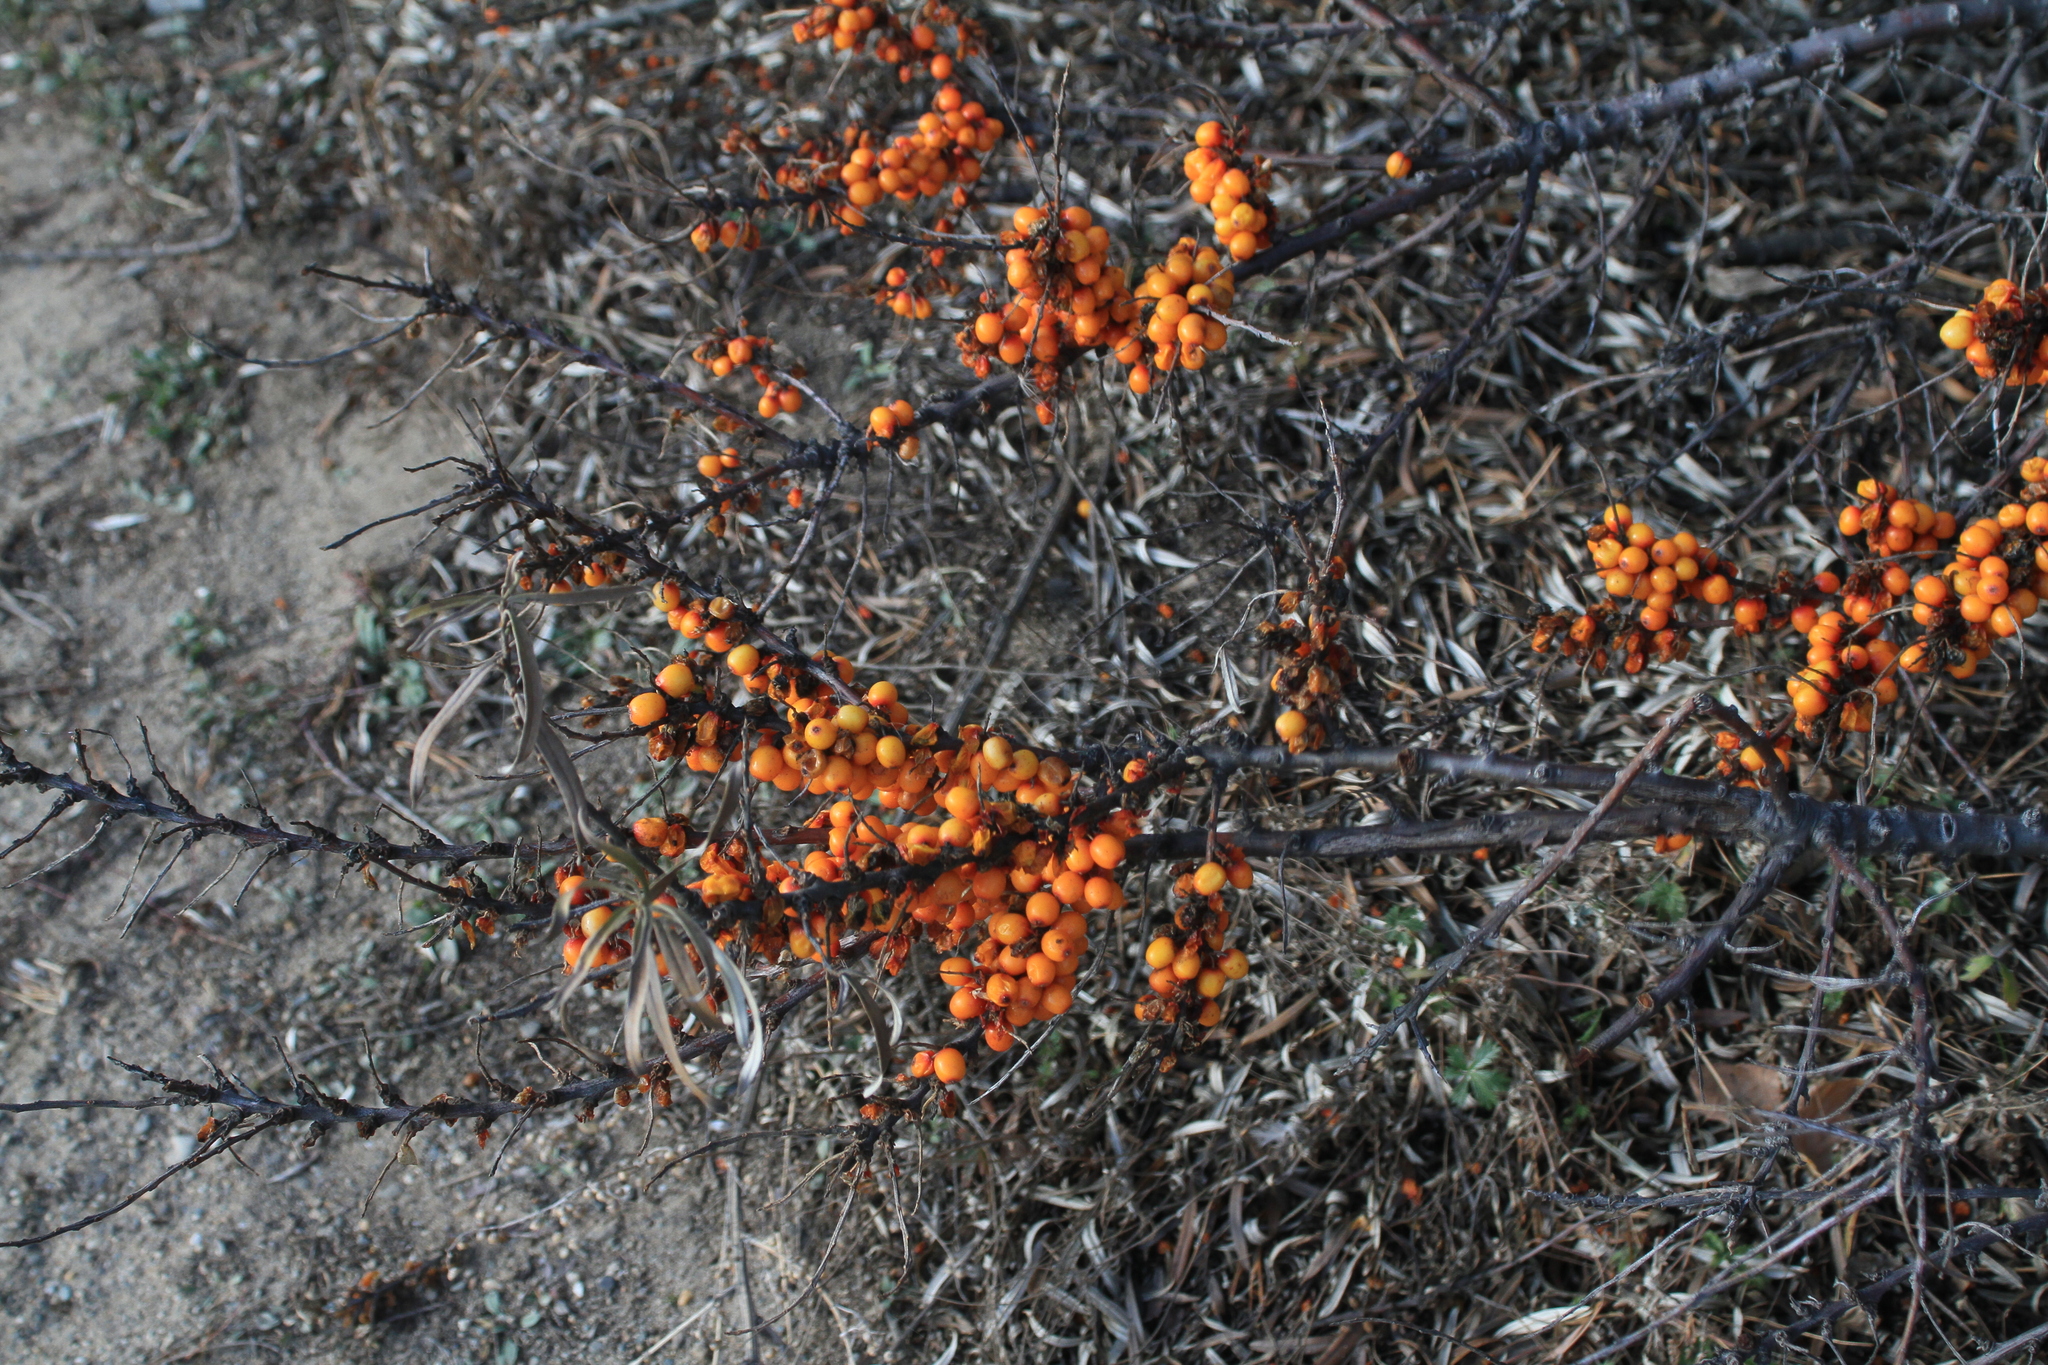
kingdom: Plantae
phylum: Tracheophyta
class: Magnoliopsida
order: Rosales
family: Elaeagnaceae
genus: Hippophae
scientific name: Hippophae rhamnoides
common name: Sea-buckthorn
